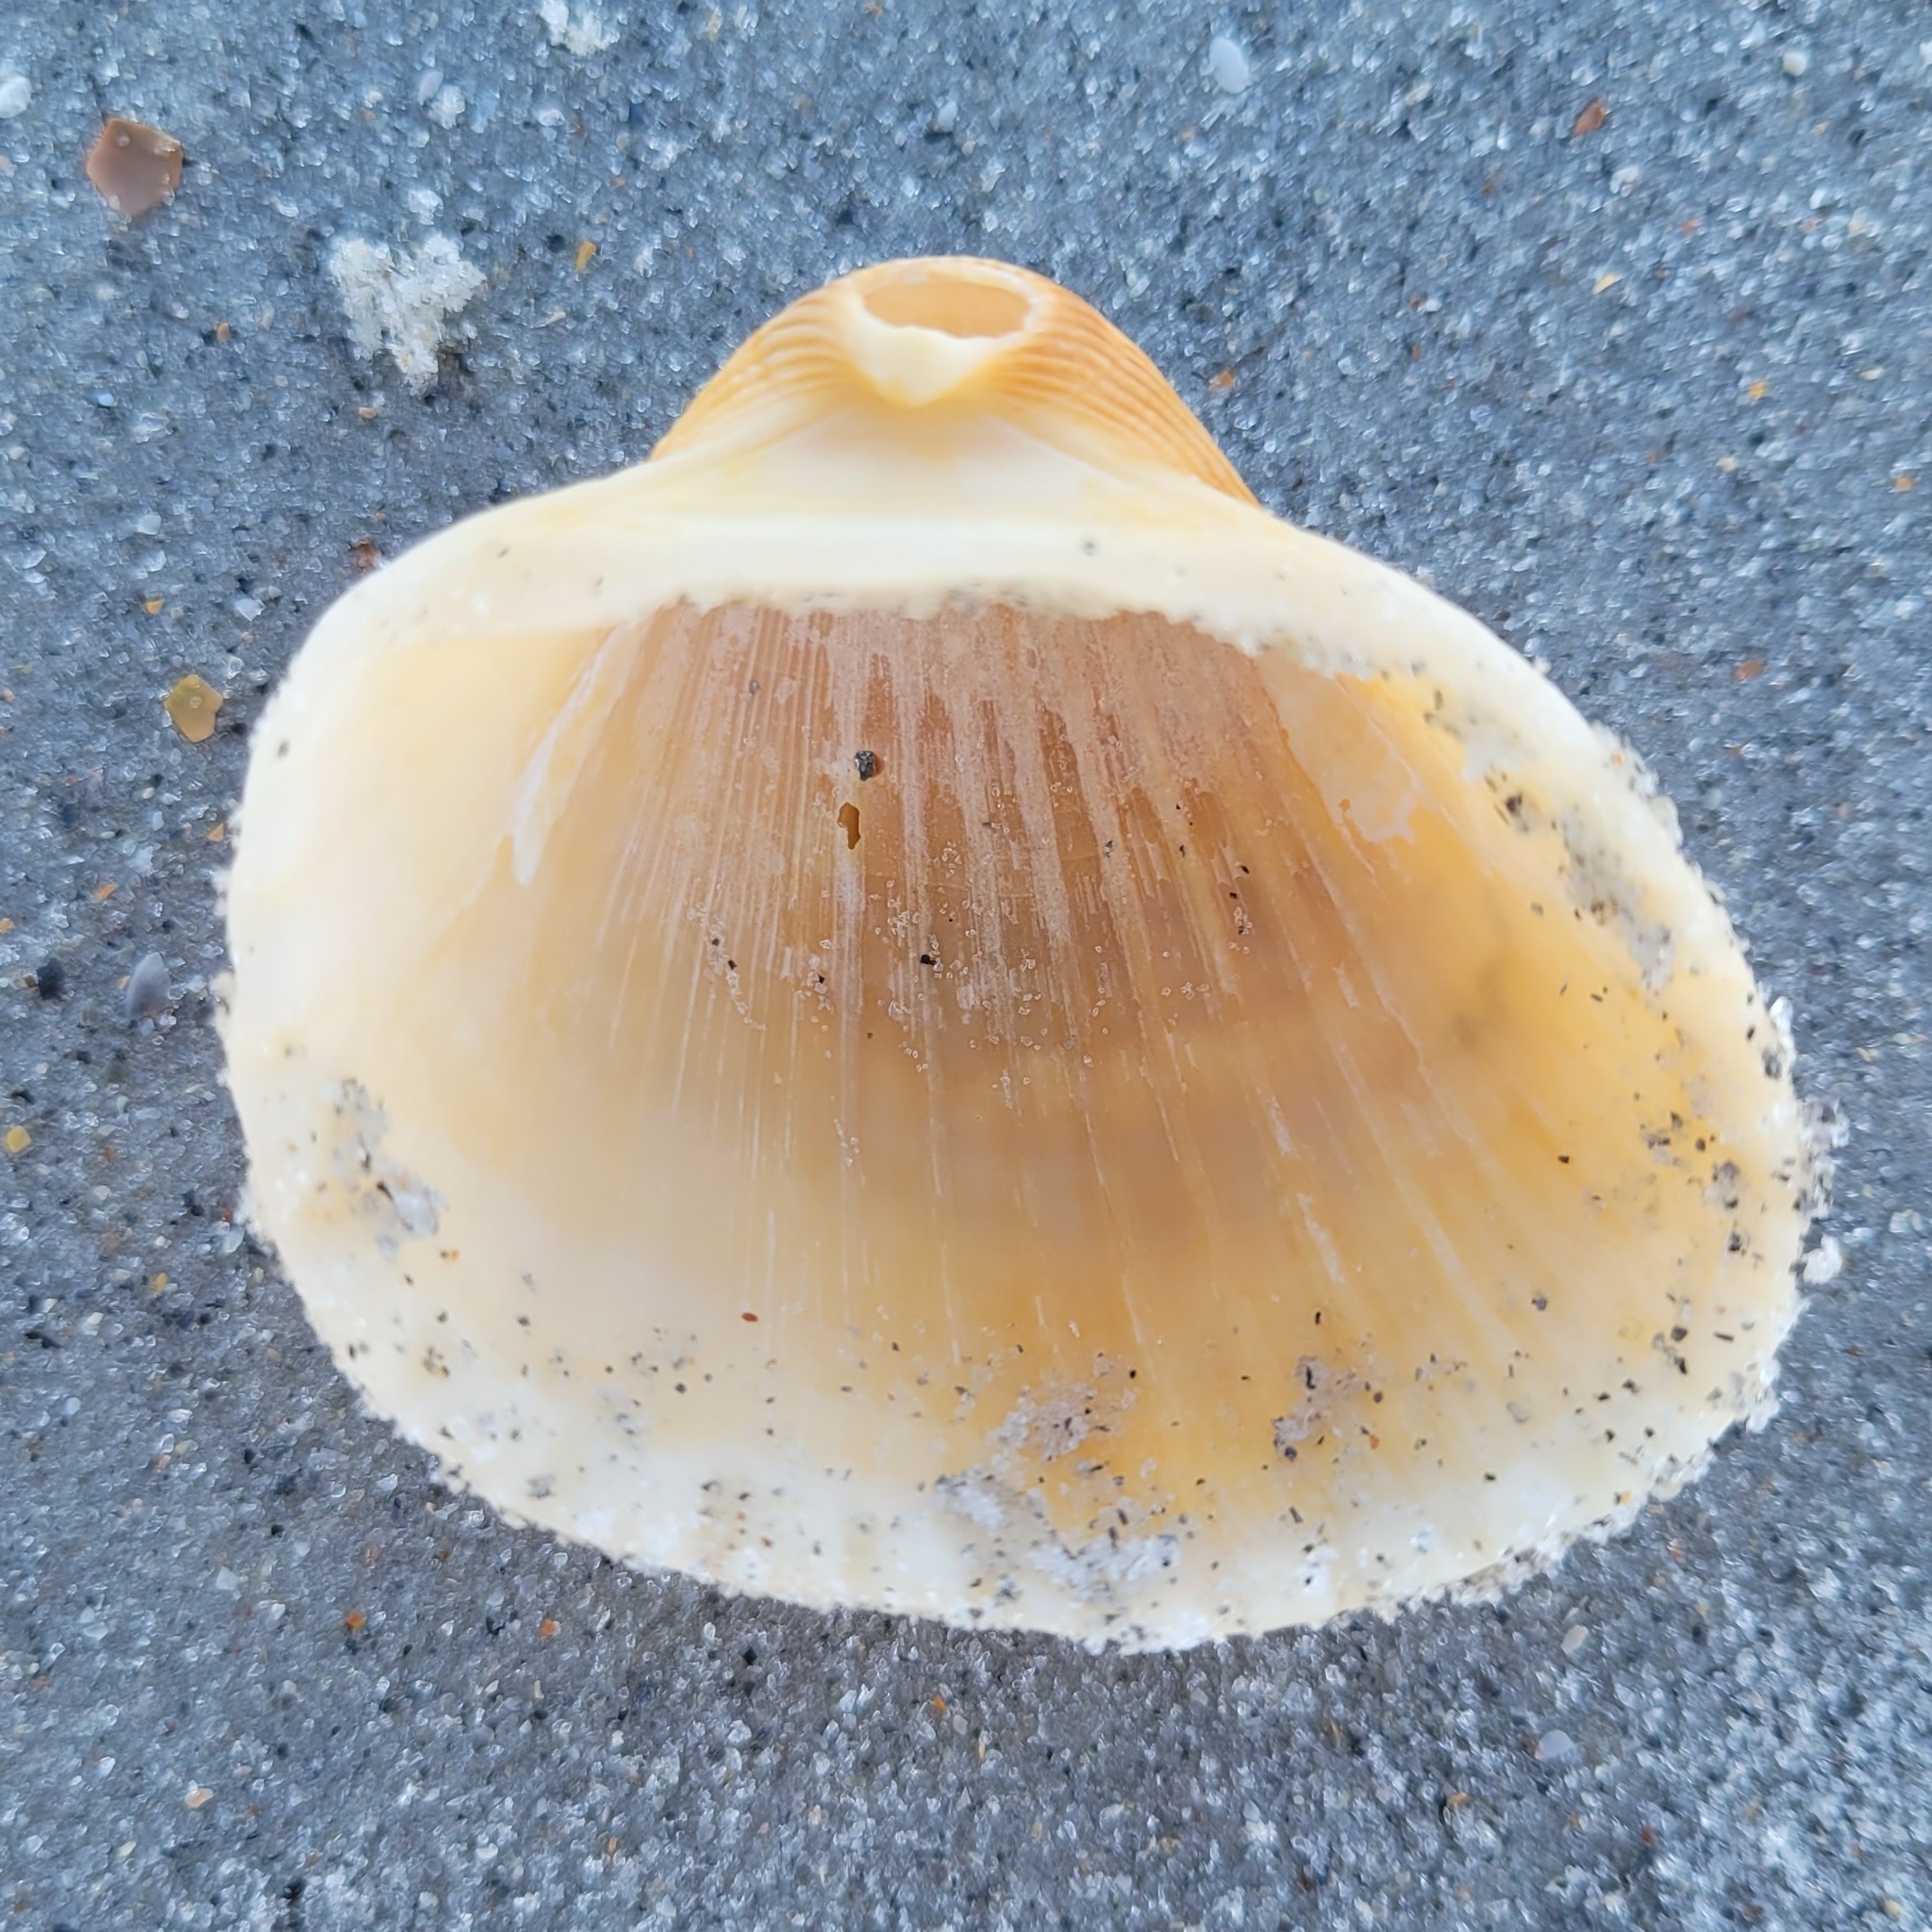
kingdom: Animalia
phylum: Mollusca
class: Bivalvia
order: Arcida
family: Arcidae
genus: Anadara
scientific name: Anadara brasiliana
